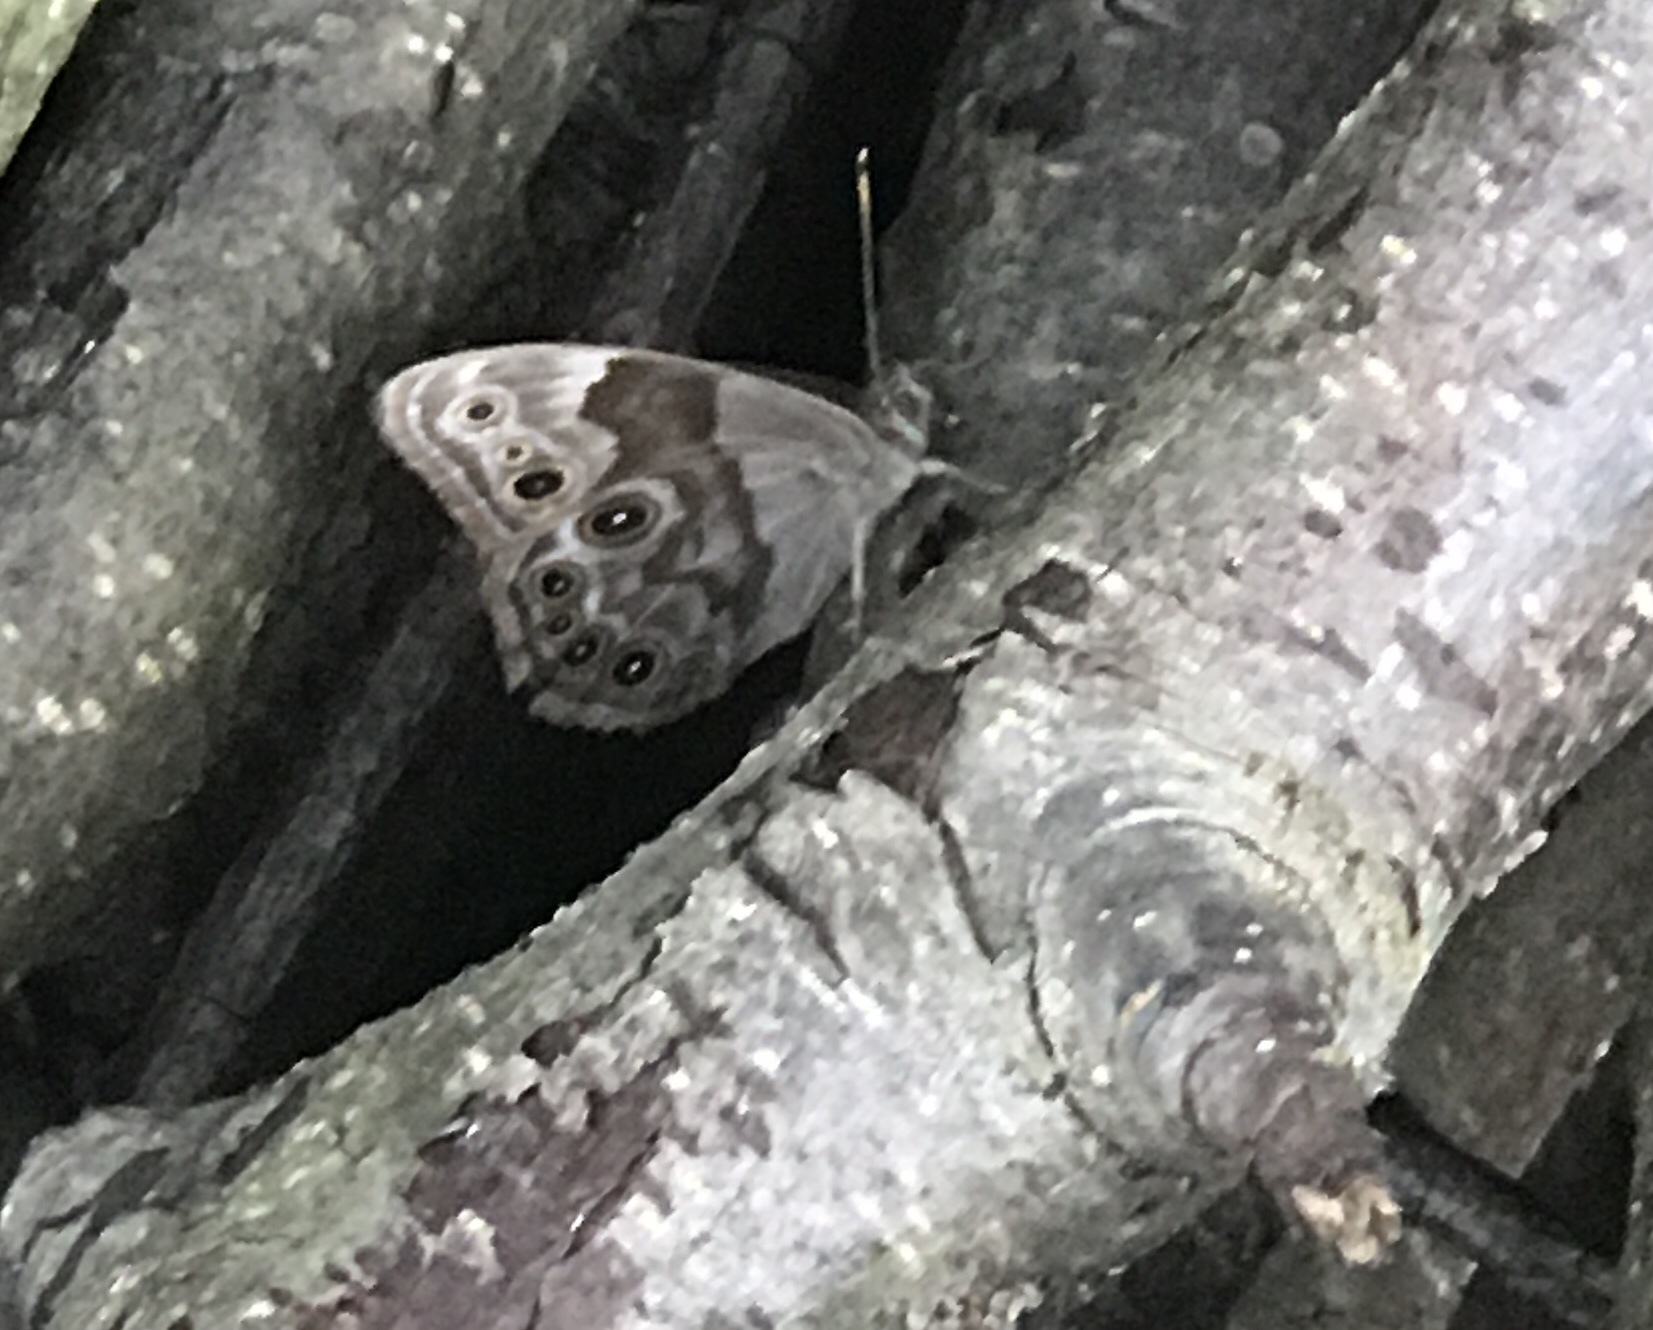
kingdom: Animalia
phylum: Arthropoda
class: Insecta
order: Lepidoptera
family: Nymphalidae
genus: Lethe
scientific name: Lethe anthedon
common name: Northern pearly-eye
